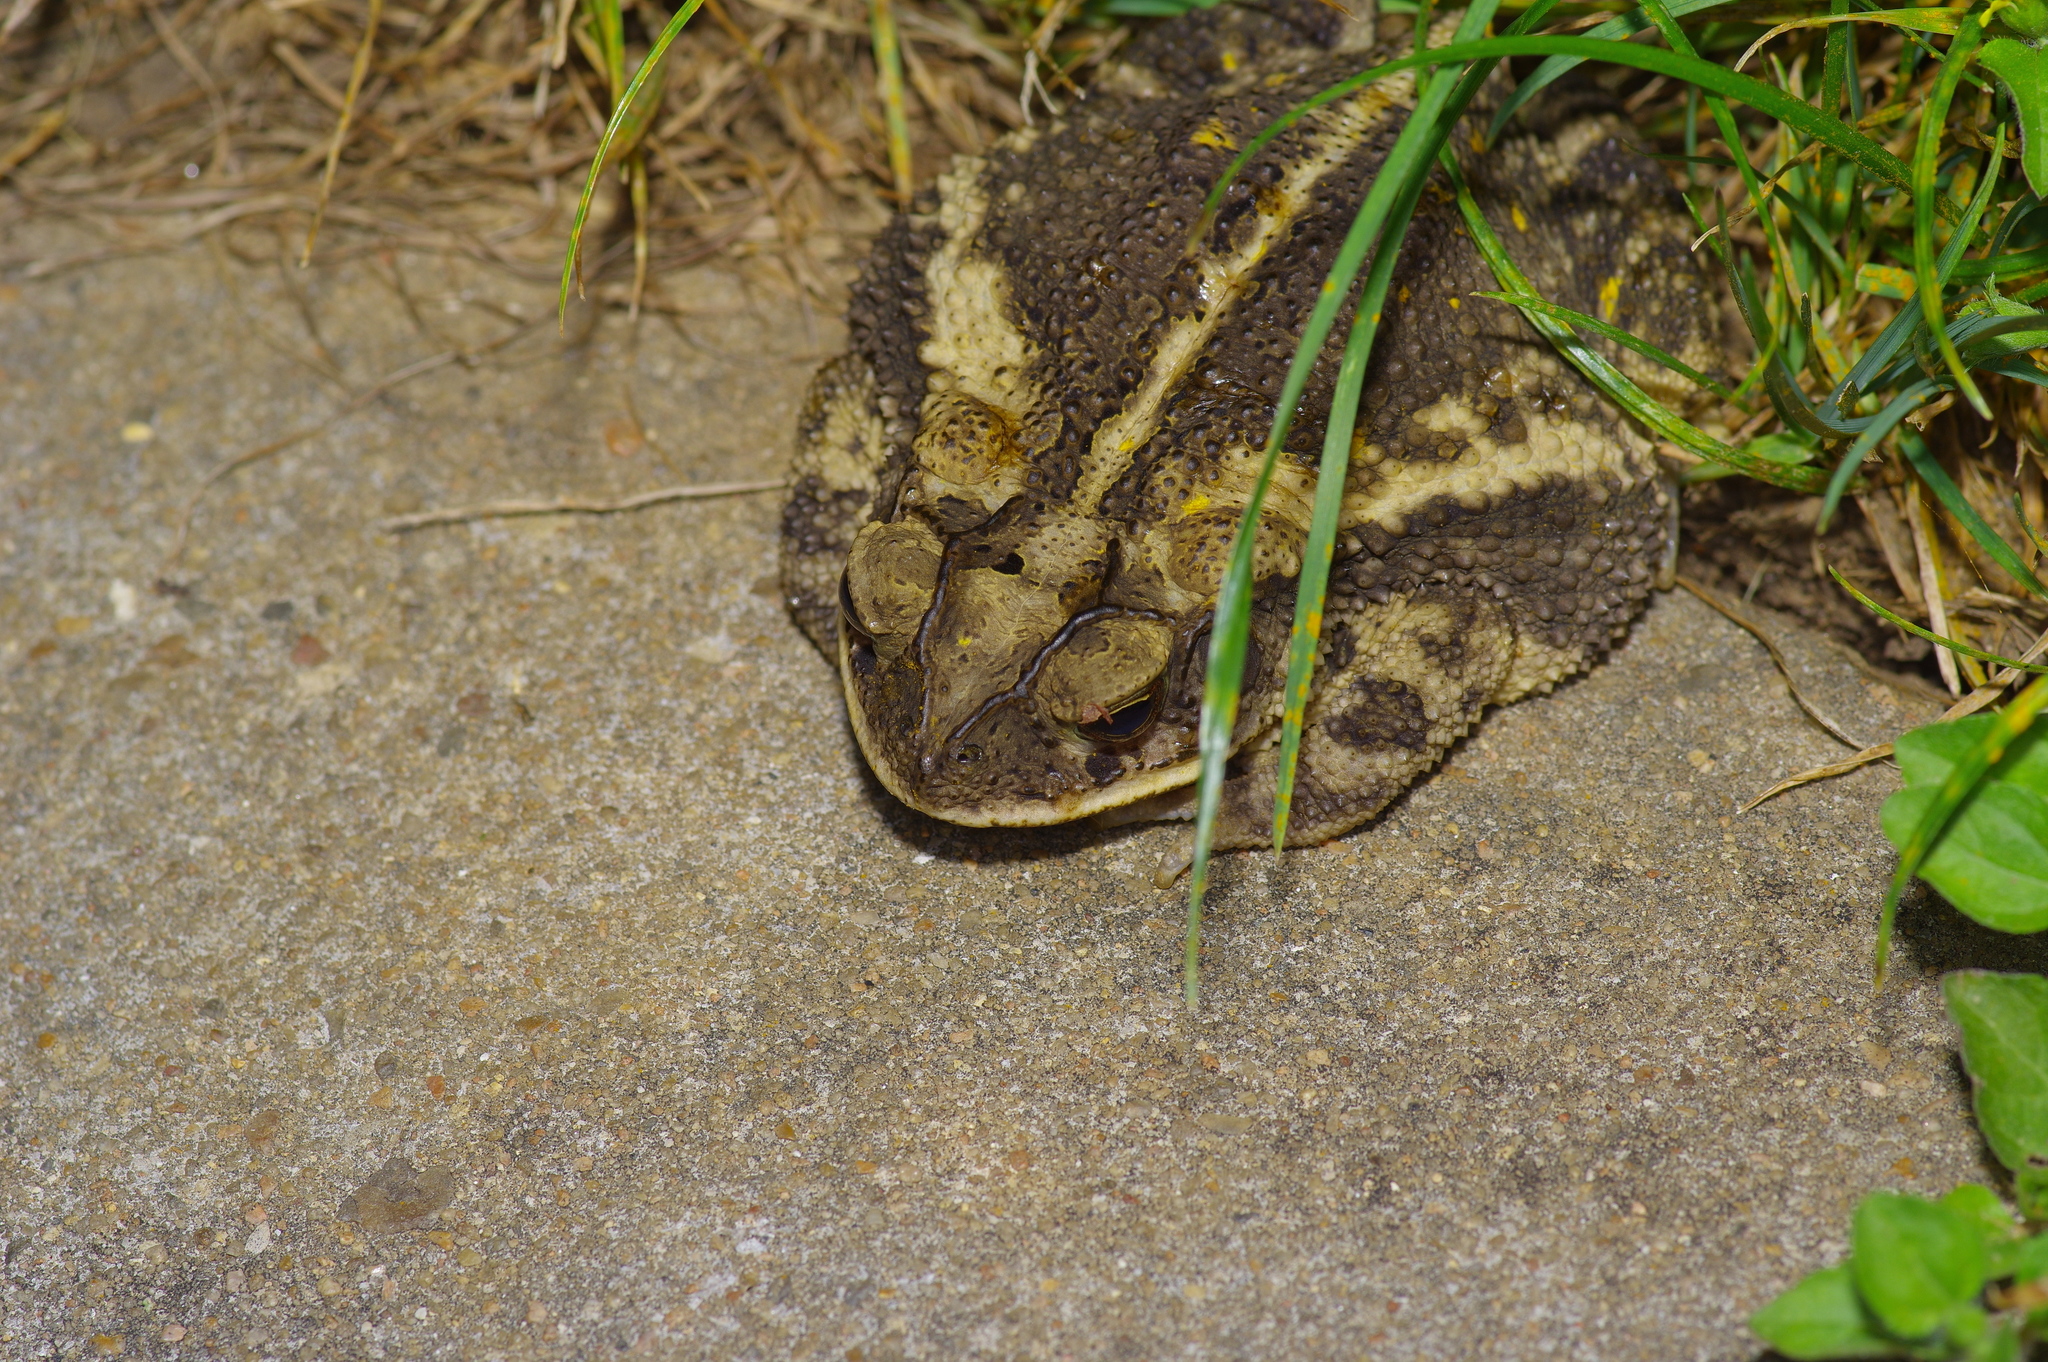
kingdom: Animalia
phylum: Chordata
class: Amphibia
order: Anura
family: Bufonidae
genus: Incilius
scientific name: Incilius nebulifer
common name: Gulf coast toad
